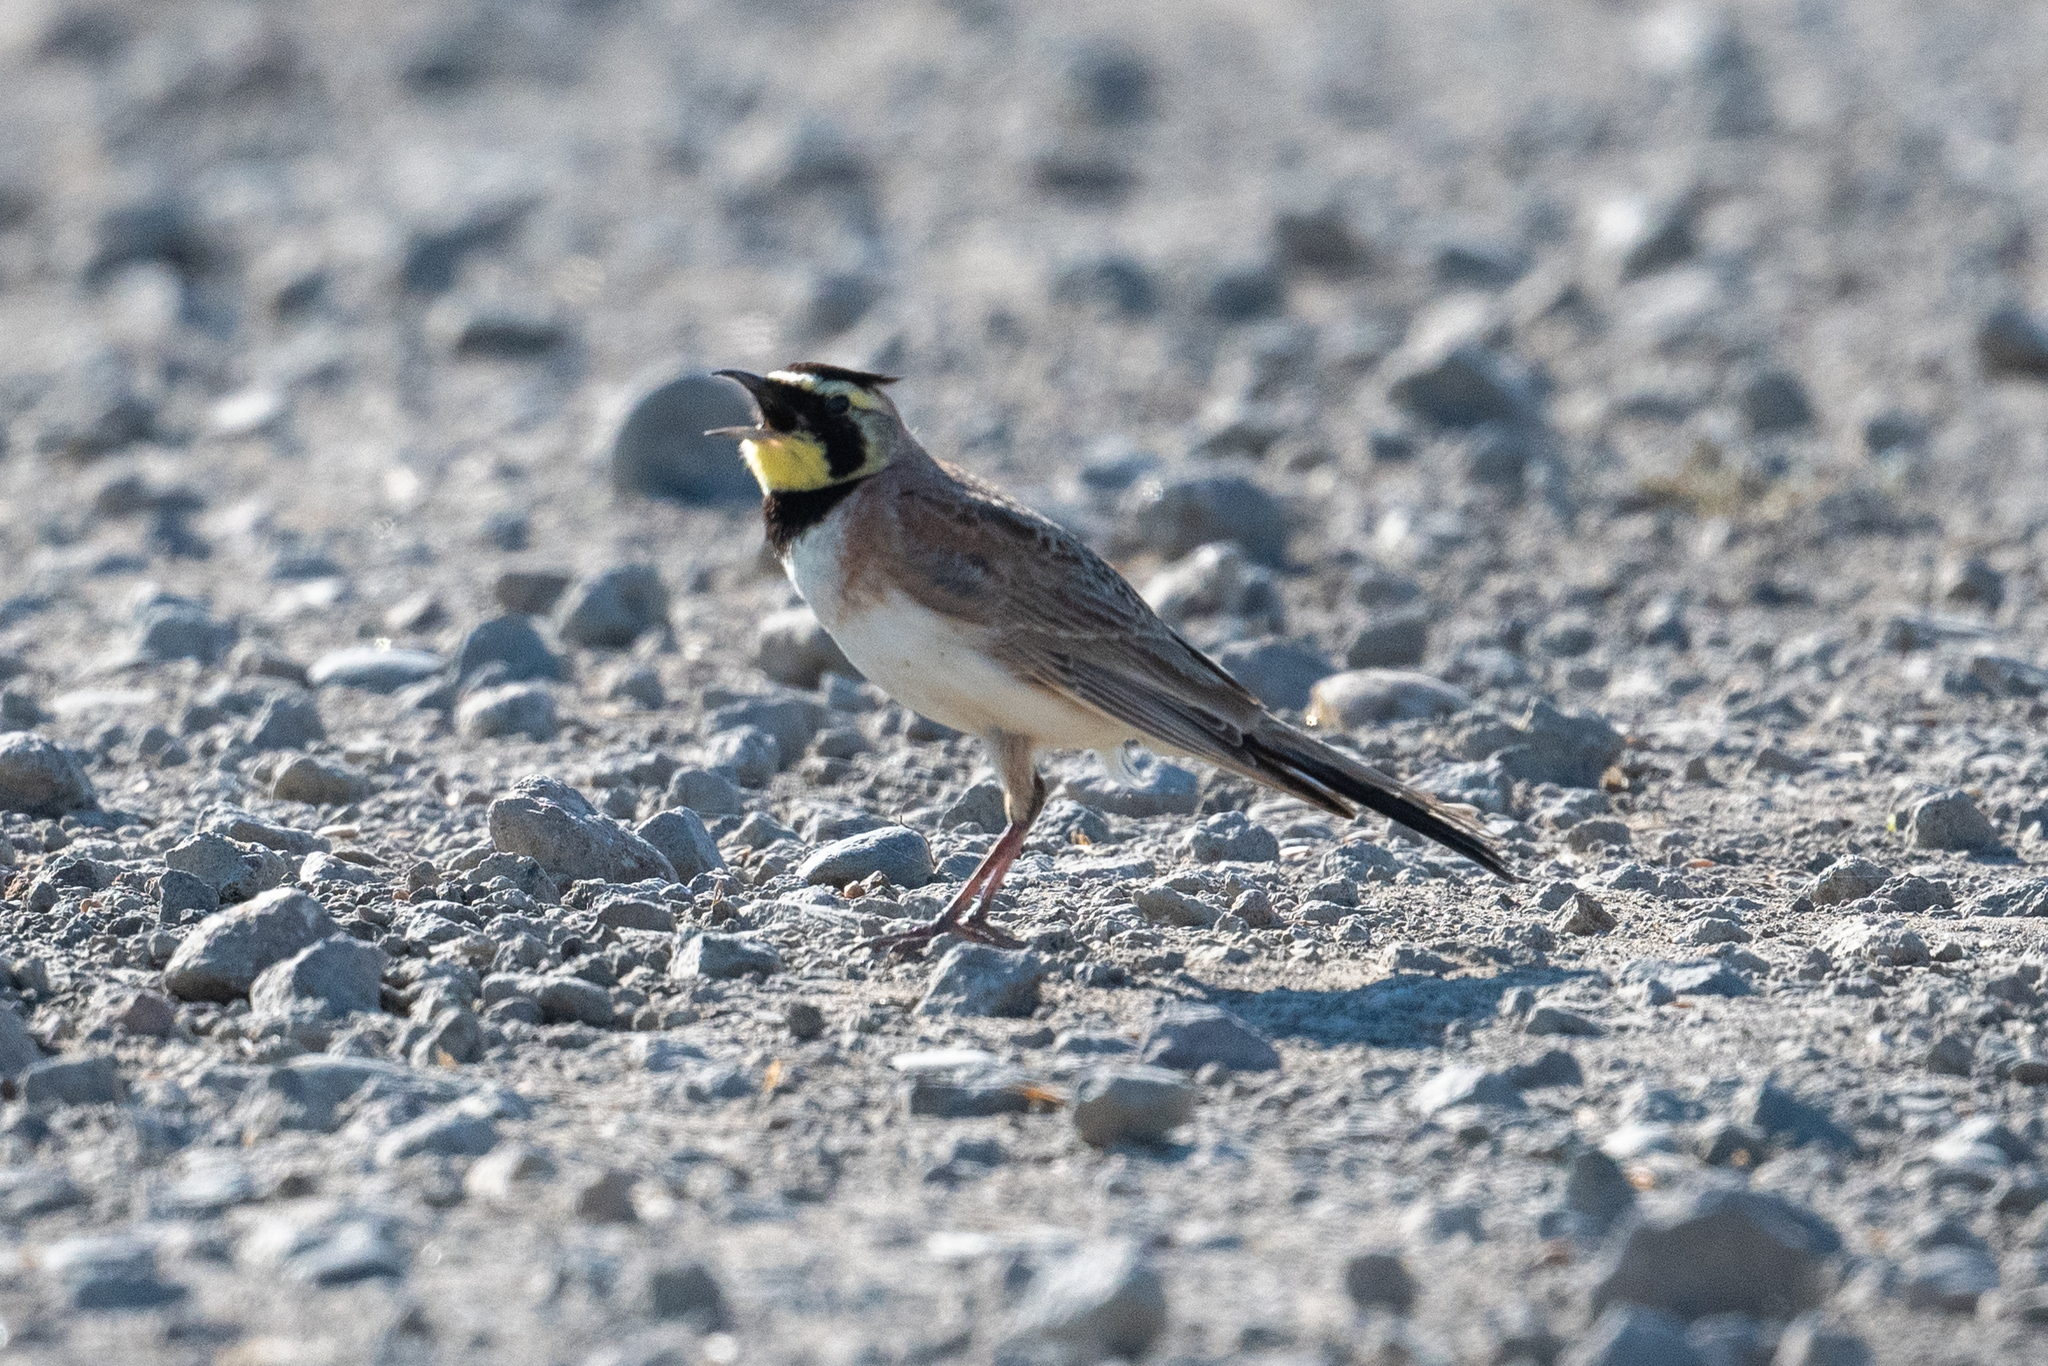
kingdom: Animalia
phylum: Chordata
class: Aves
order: Passeriformes
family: Alaudidae
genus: Eremophila
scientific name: Eremophila alpestris
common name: Horned lark
